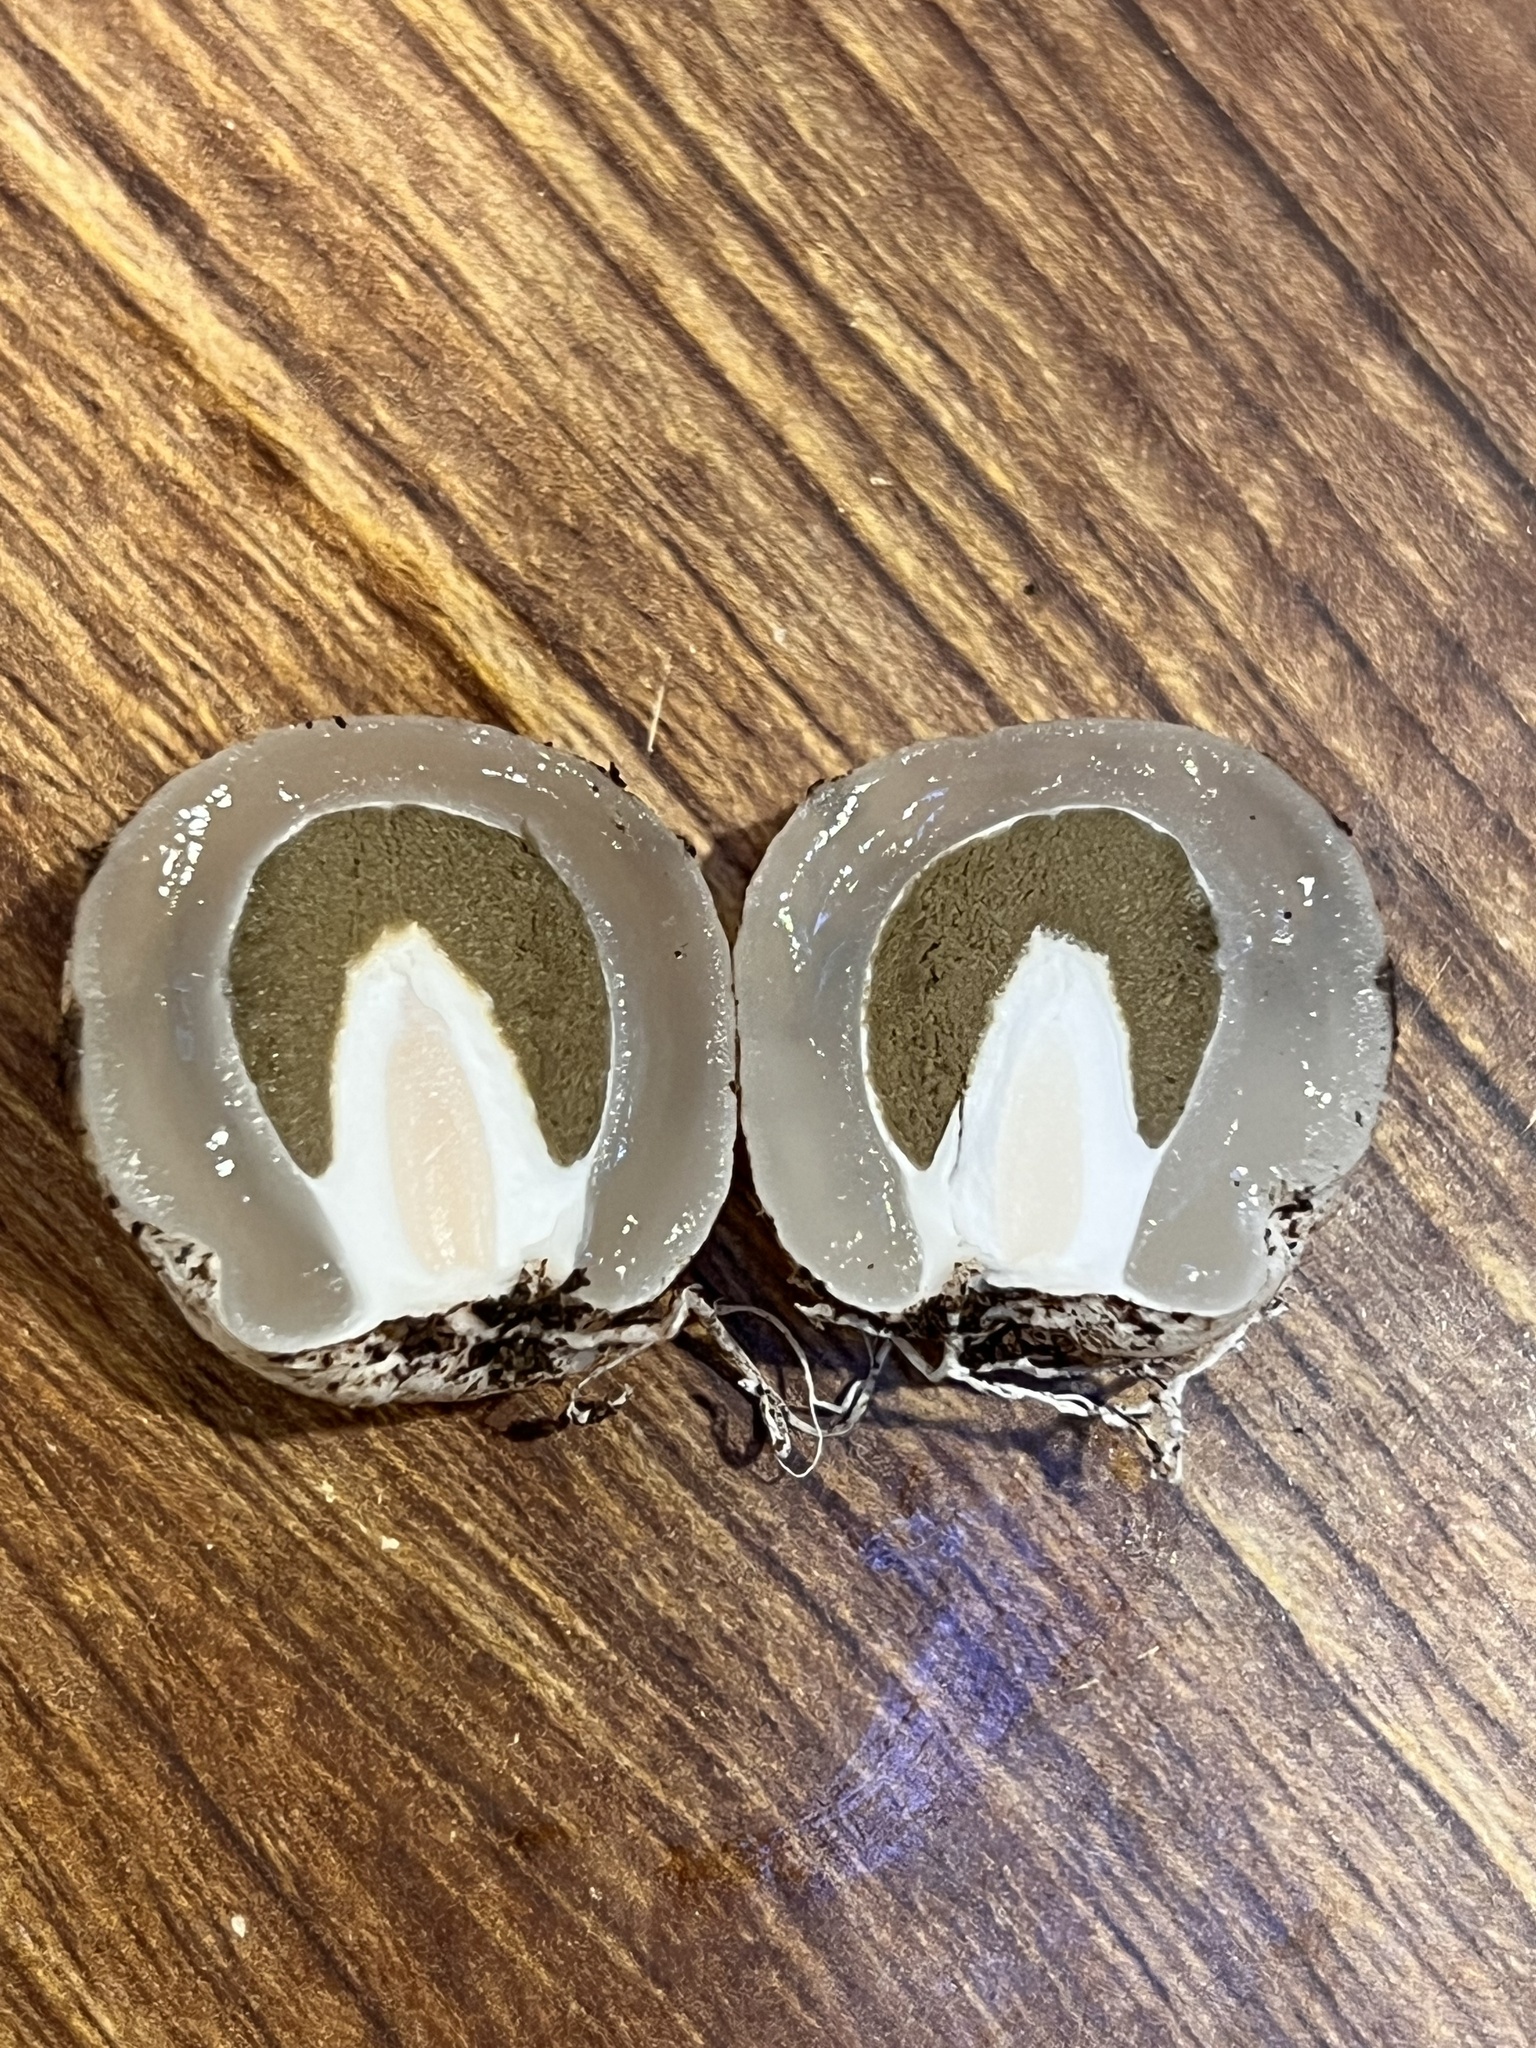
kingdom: Fungi
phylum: Basidiomycota
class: Agaricomycetes
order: Phallales
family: Phallaceae
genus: Phallus
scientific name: Phallus ravenelii
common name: Ravenel's stinkhorn
